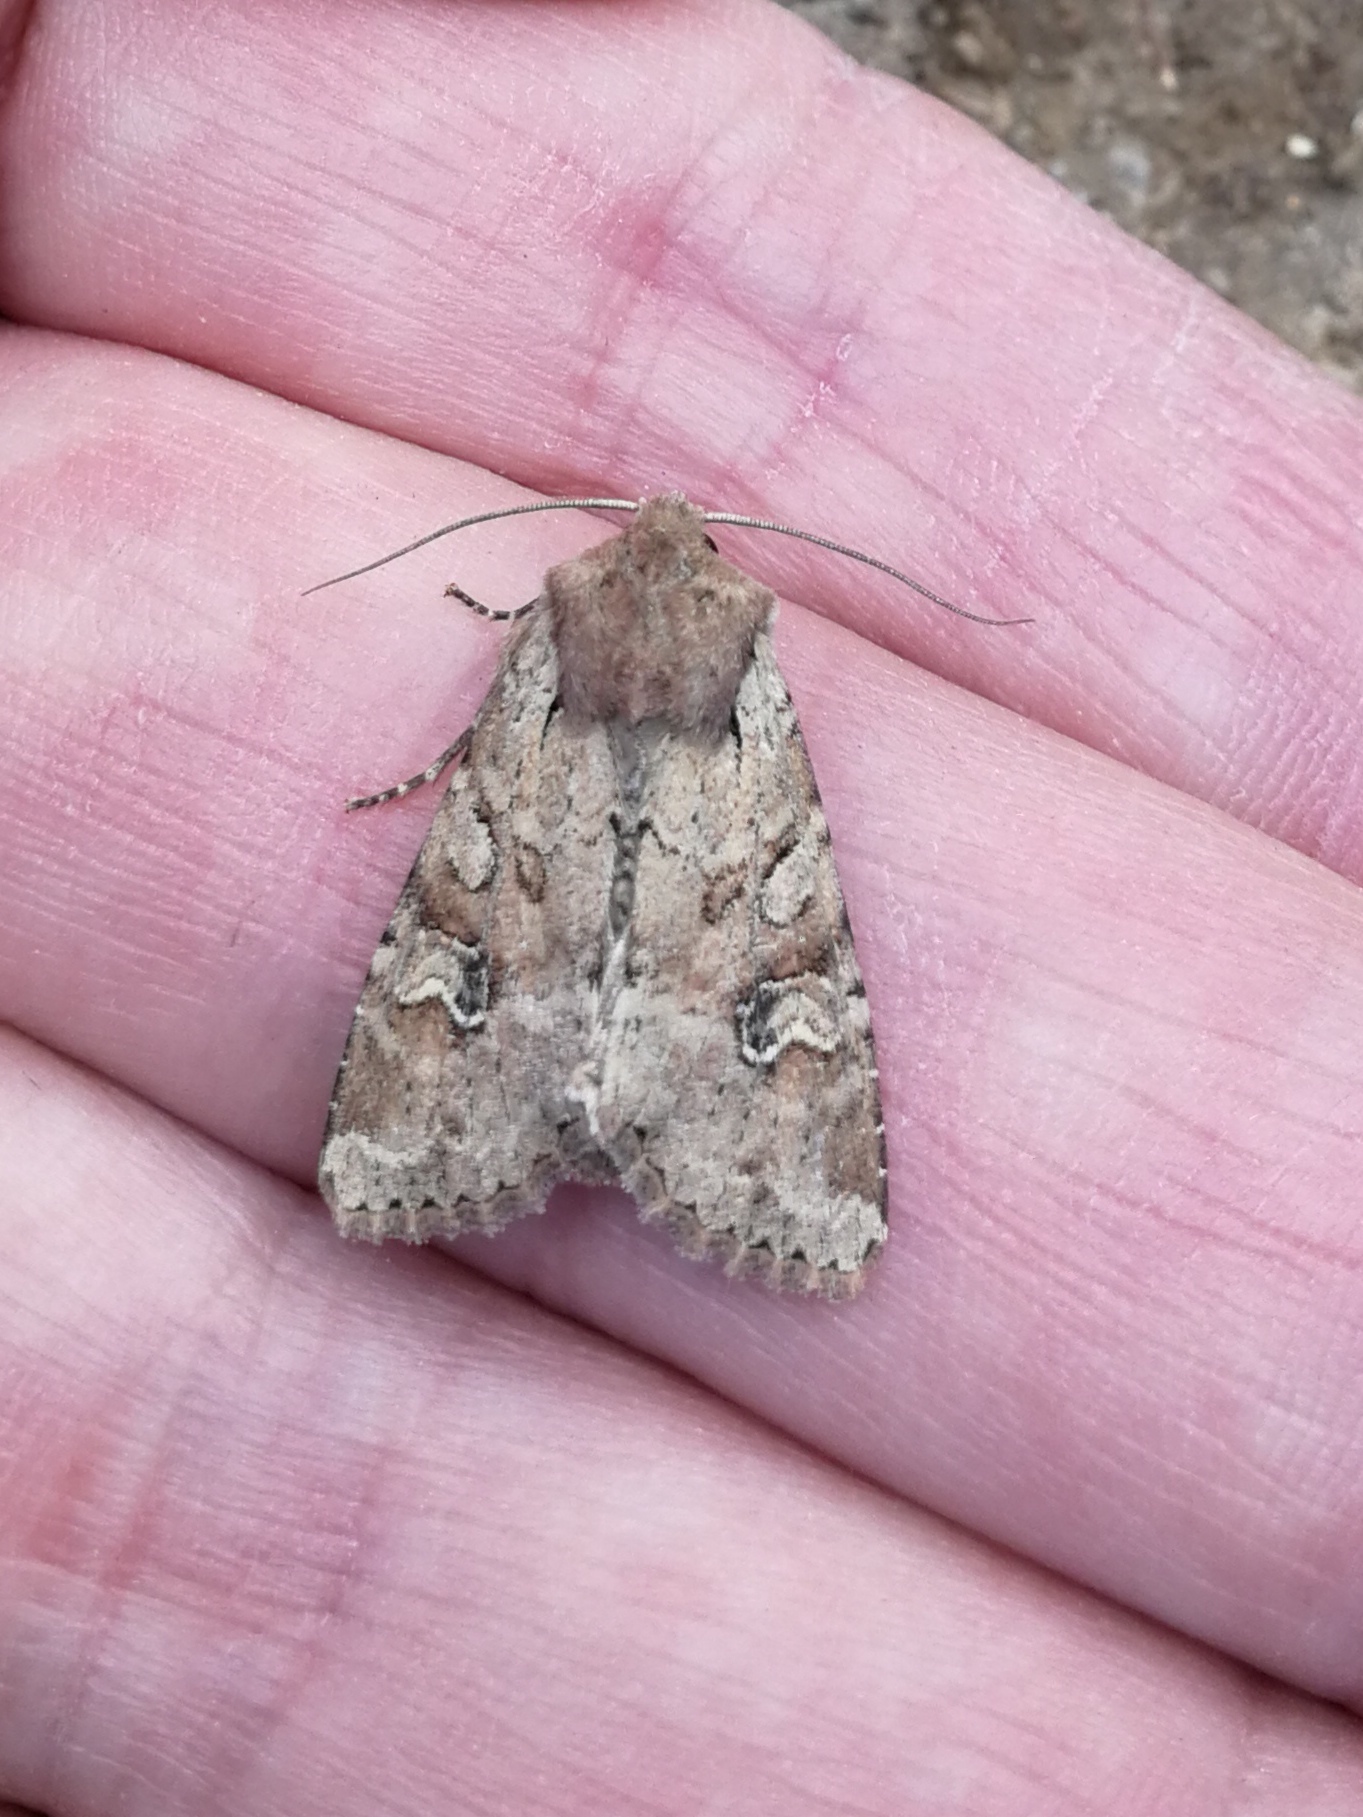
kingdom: Animalia
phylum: Arthropoda
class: Insecta
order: Lepidoptera
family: Noctuidae
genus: Apamea
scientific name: Apamea sordens
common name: Rustic shoulder-knot
